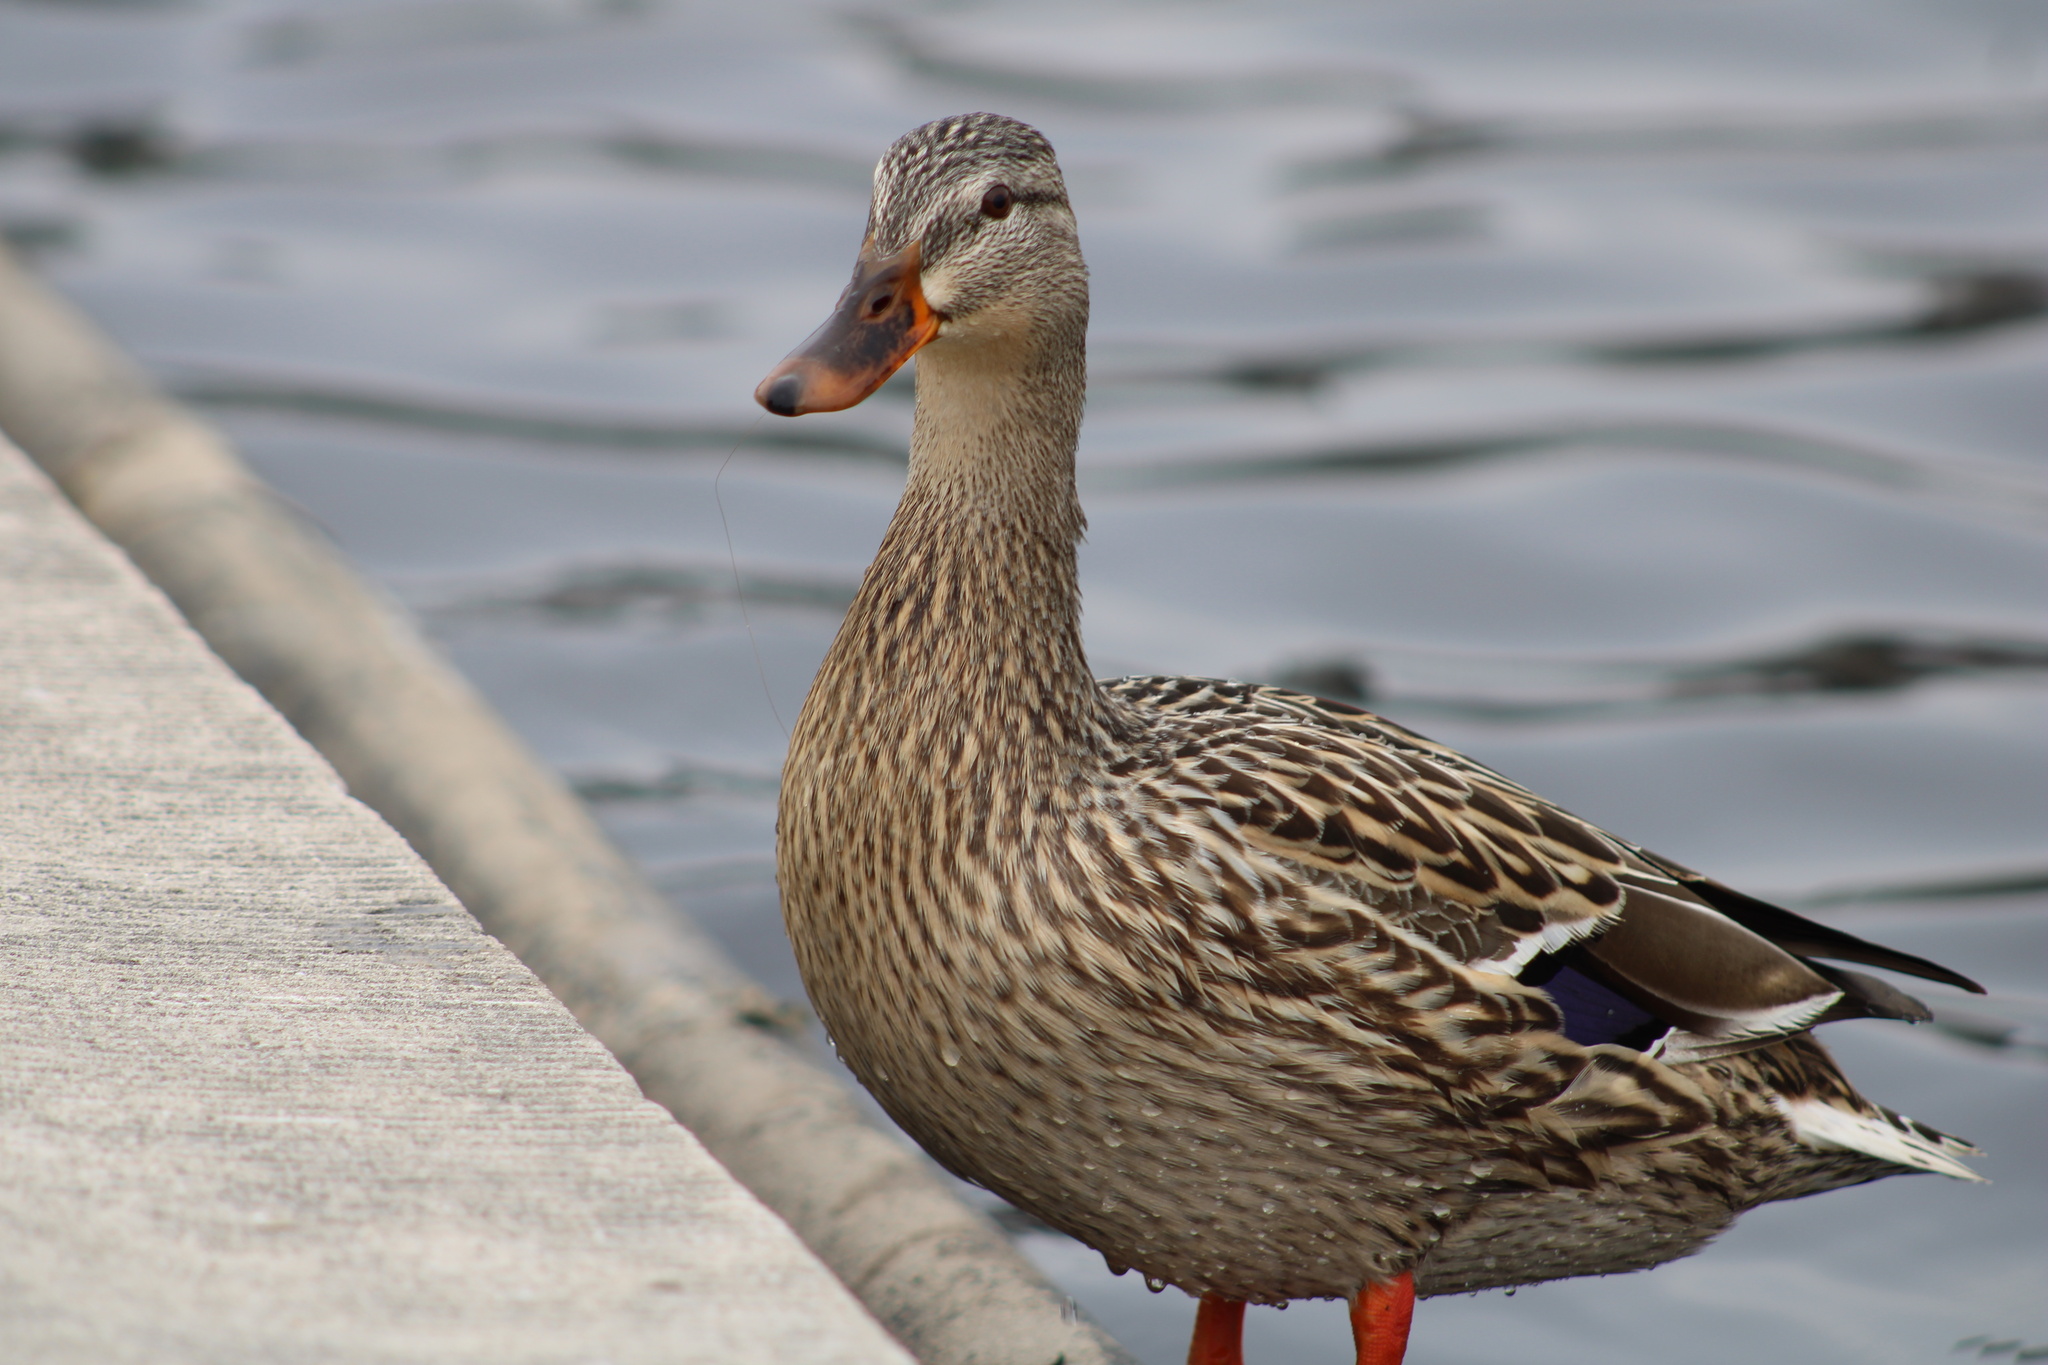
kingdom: Animalia
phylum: Chordata
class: Aves
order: Anseriformes
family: Anatidae
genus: Anas
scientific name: Anas platyrhynchos
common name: Mallard
